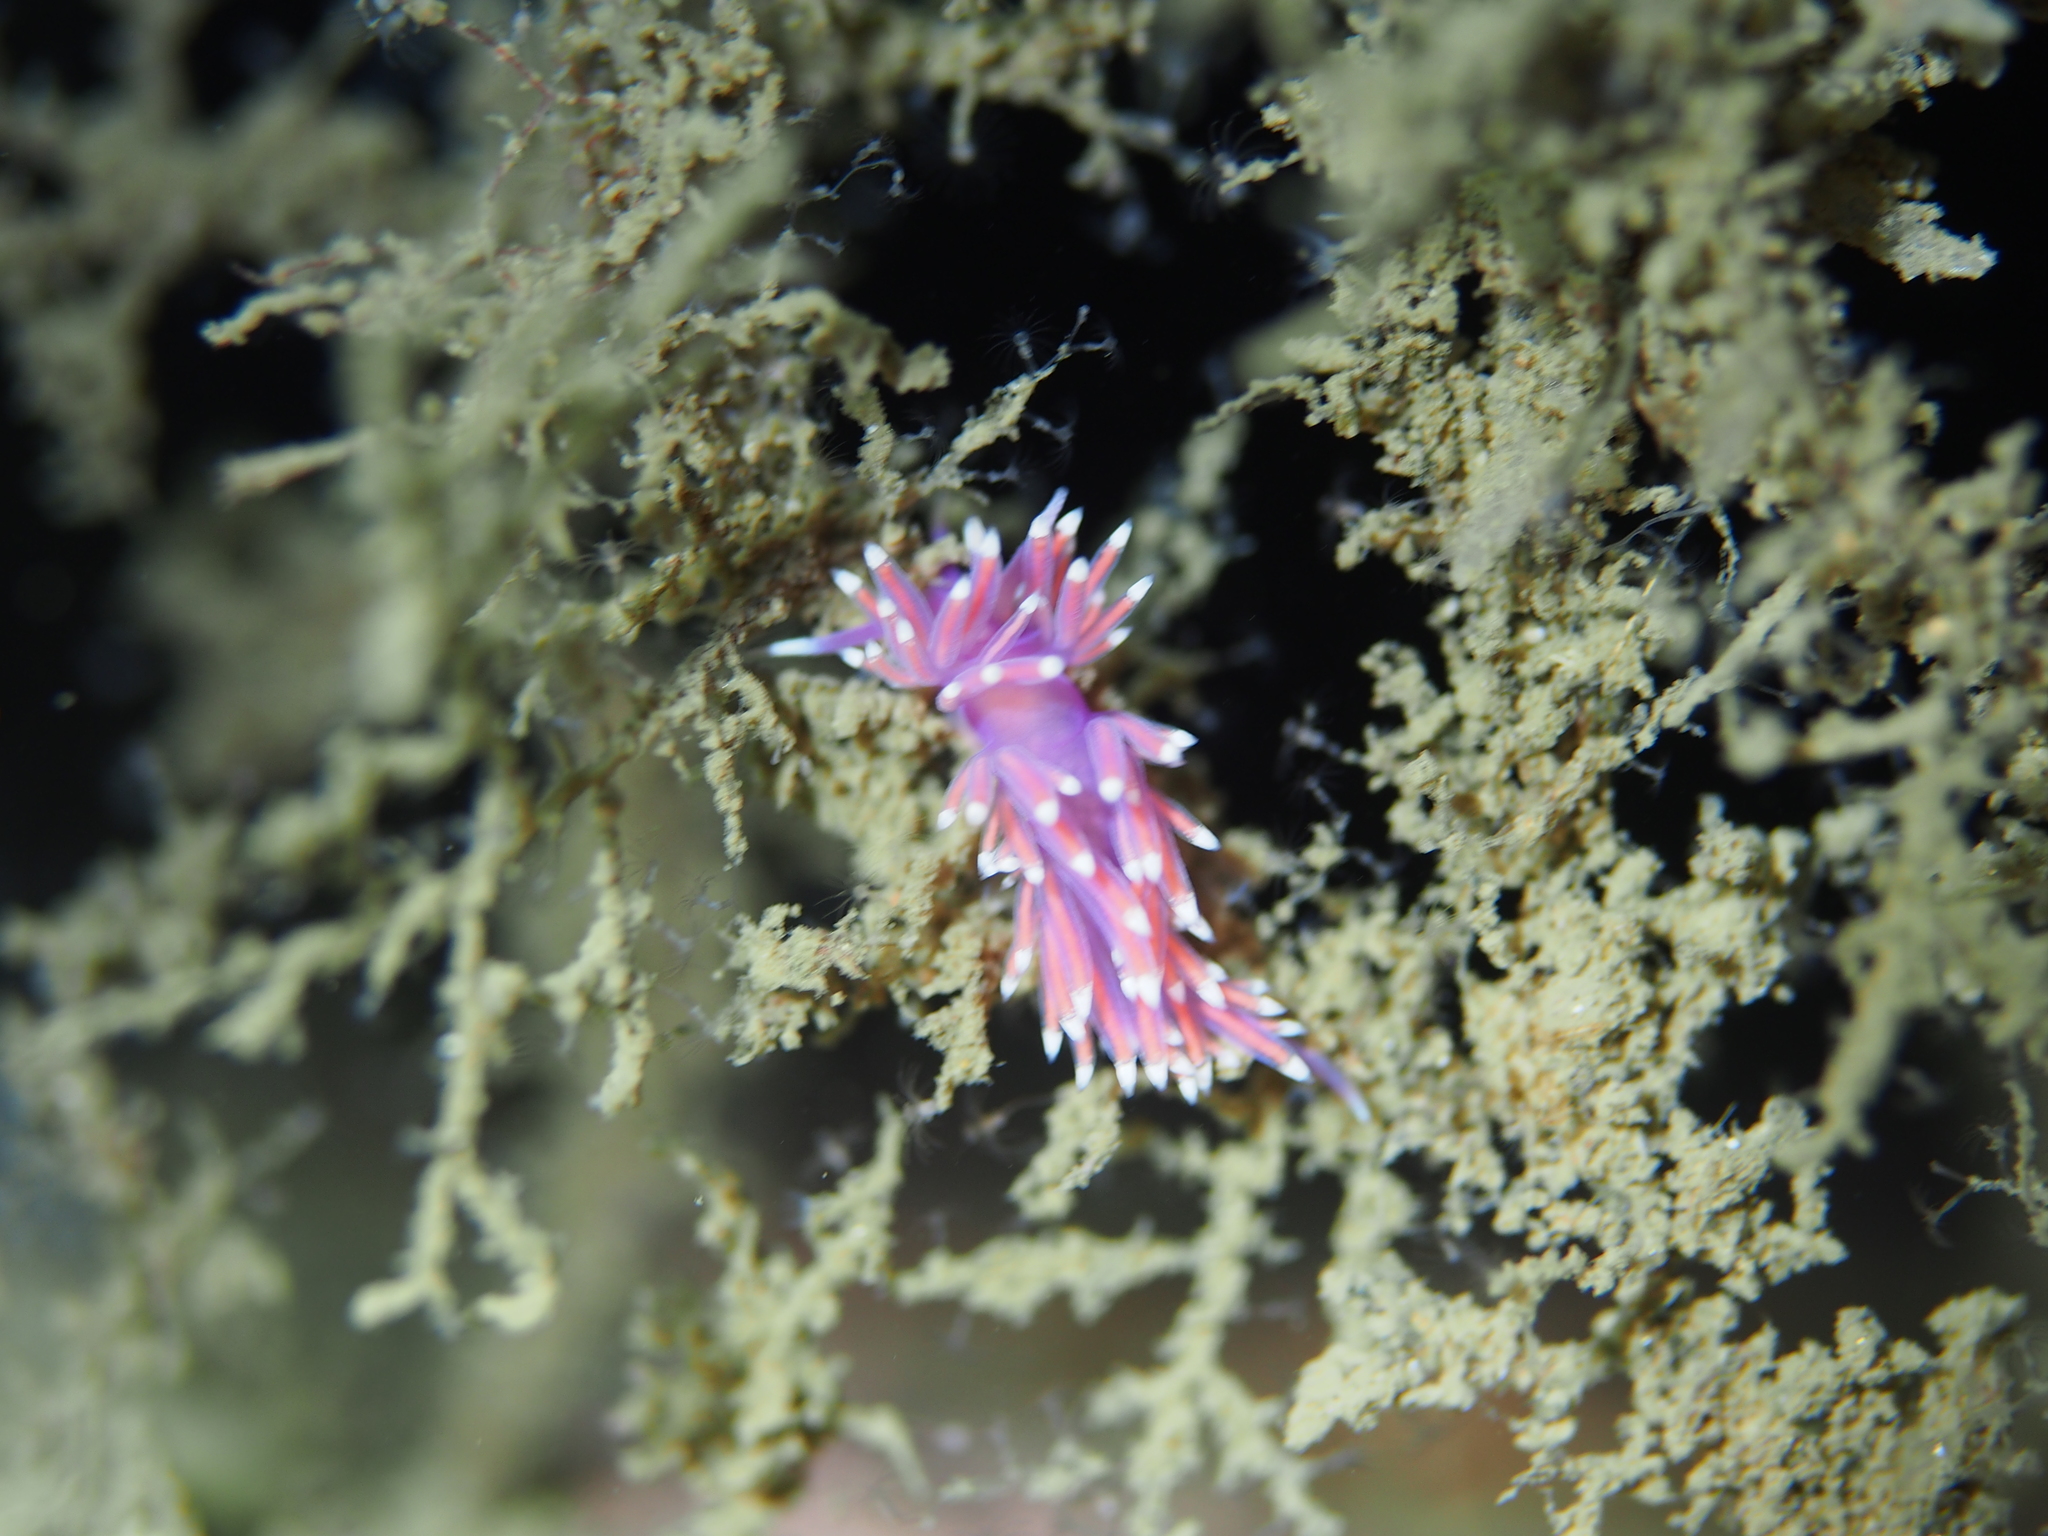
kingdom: Animalia
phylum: Mollusca
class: Gastropoda
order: Nudibranchia
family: Flabellinidae
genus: Edmundsella
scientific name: Edmundsella pedata
